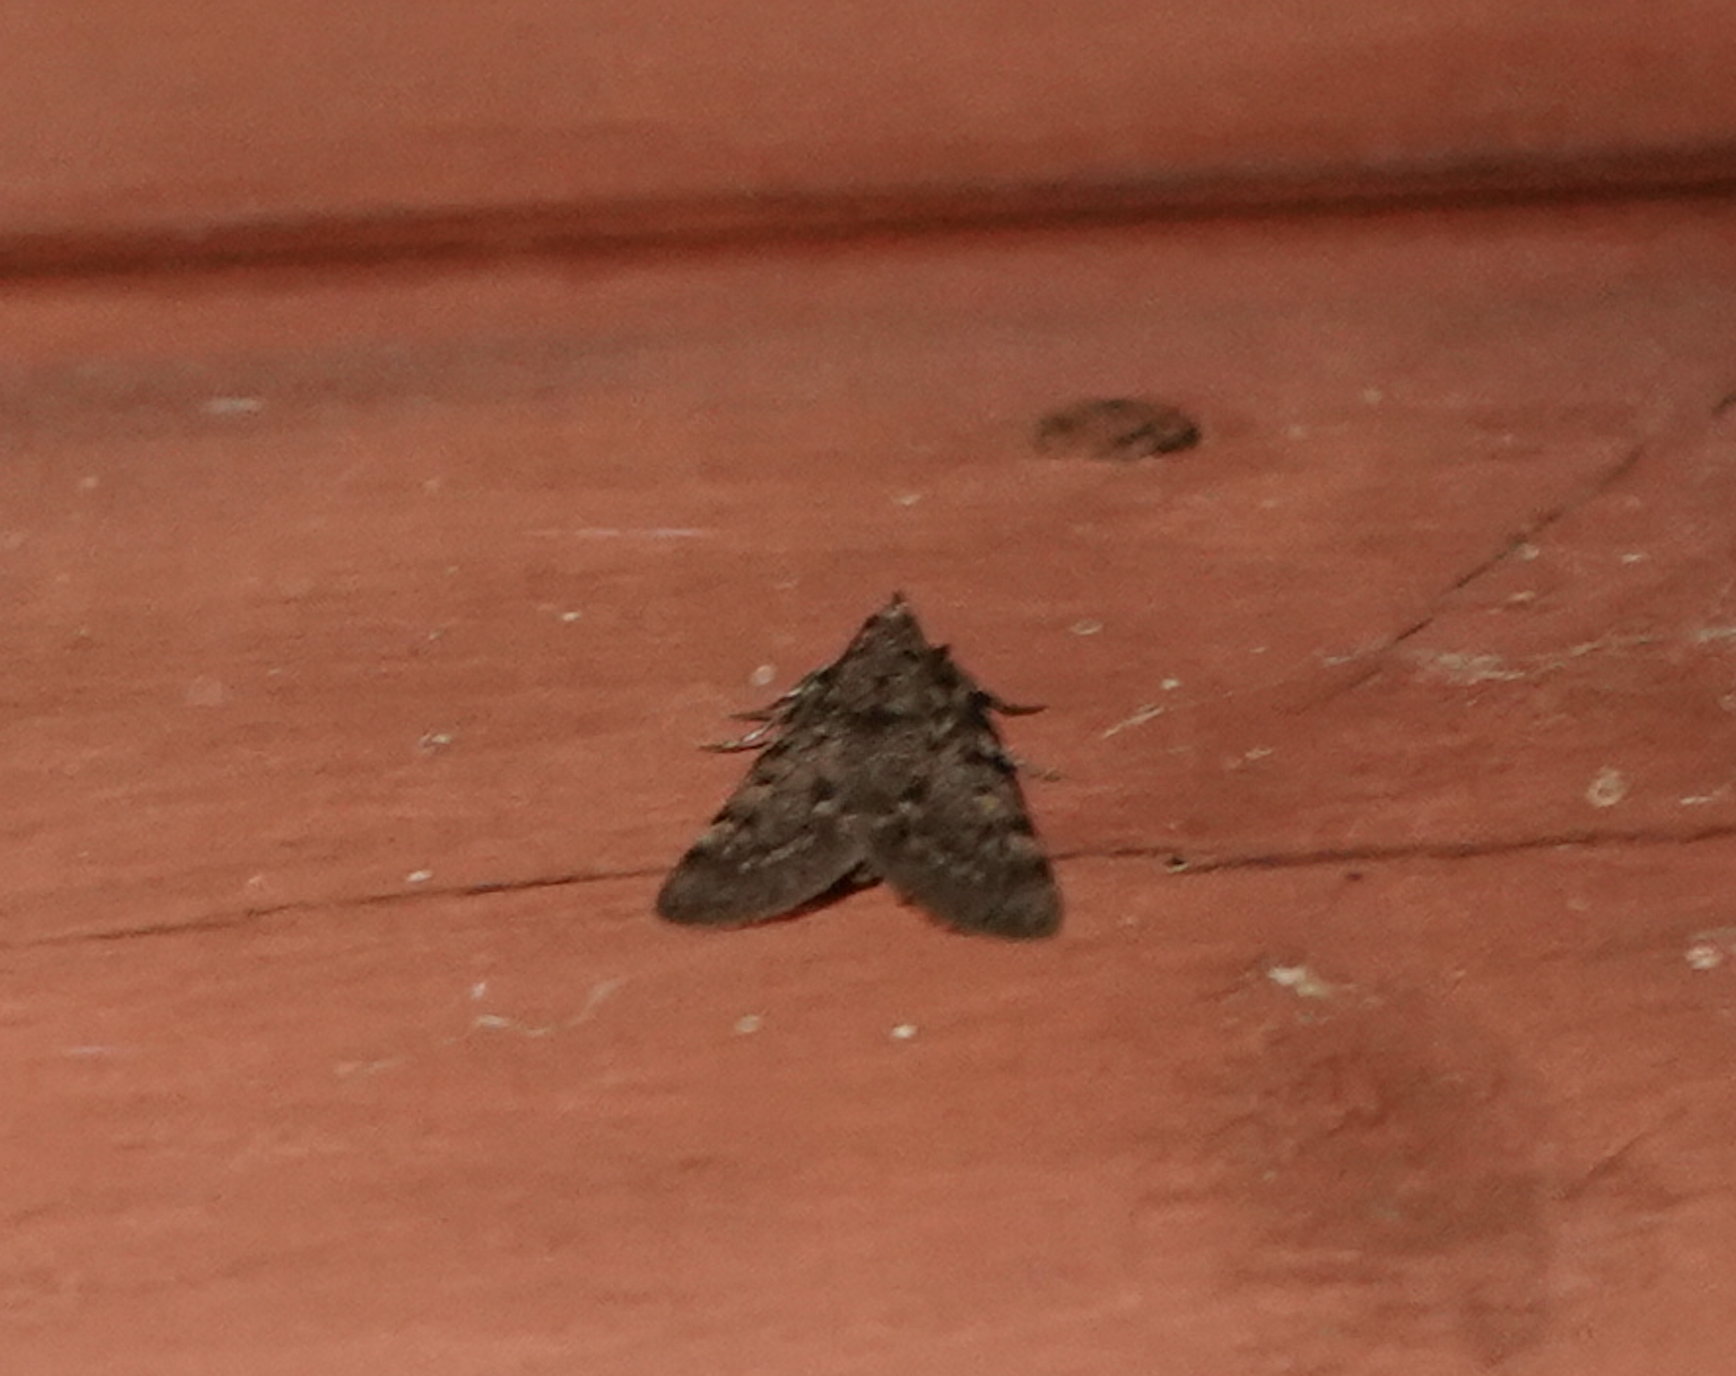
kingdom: Animalia
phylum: Arthropoda
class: Insecta
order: Lepidoptera
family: Pyralidae
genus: Aglossa
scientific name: Aglossa pinguinalis
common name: Large tabby
